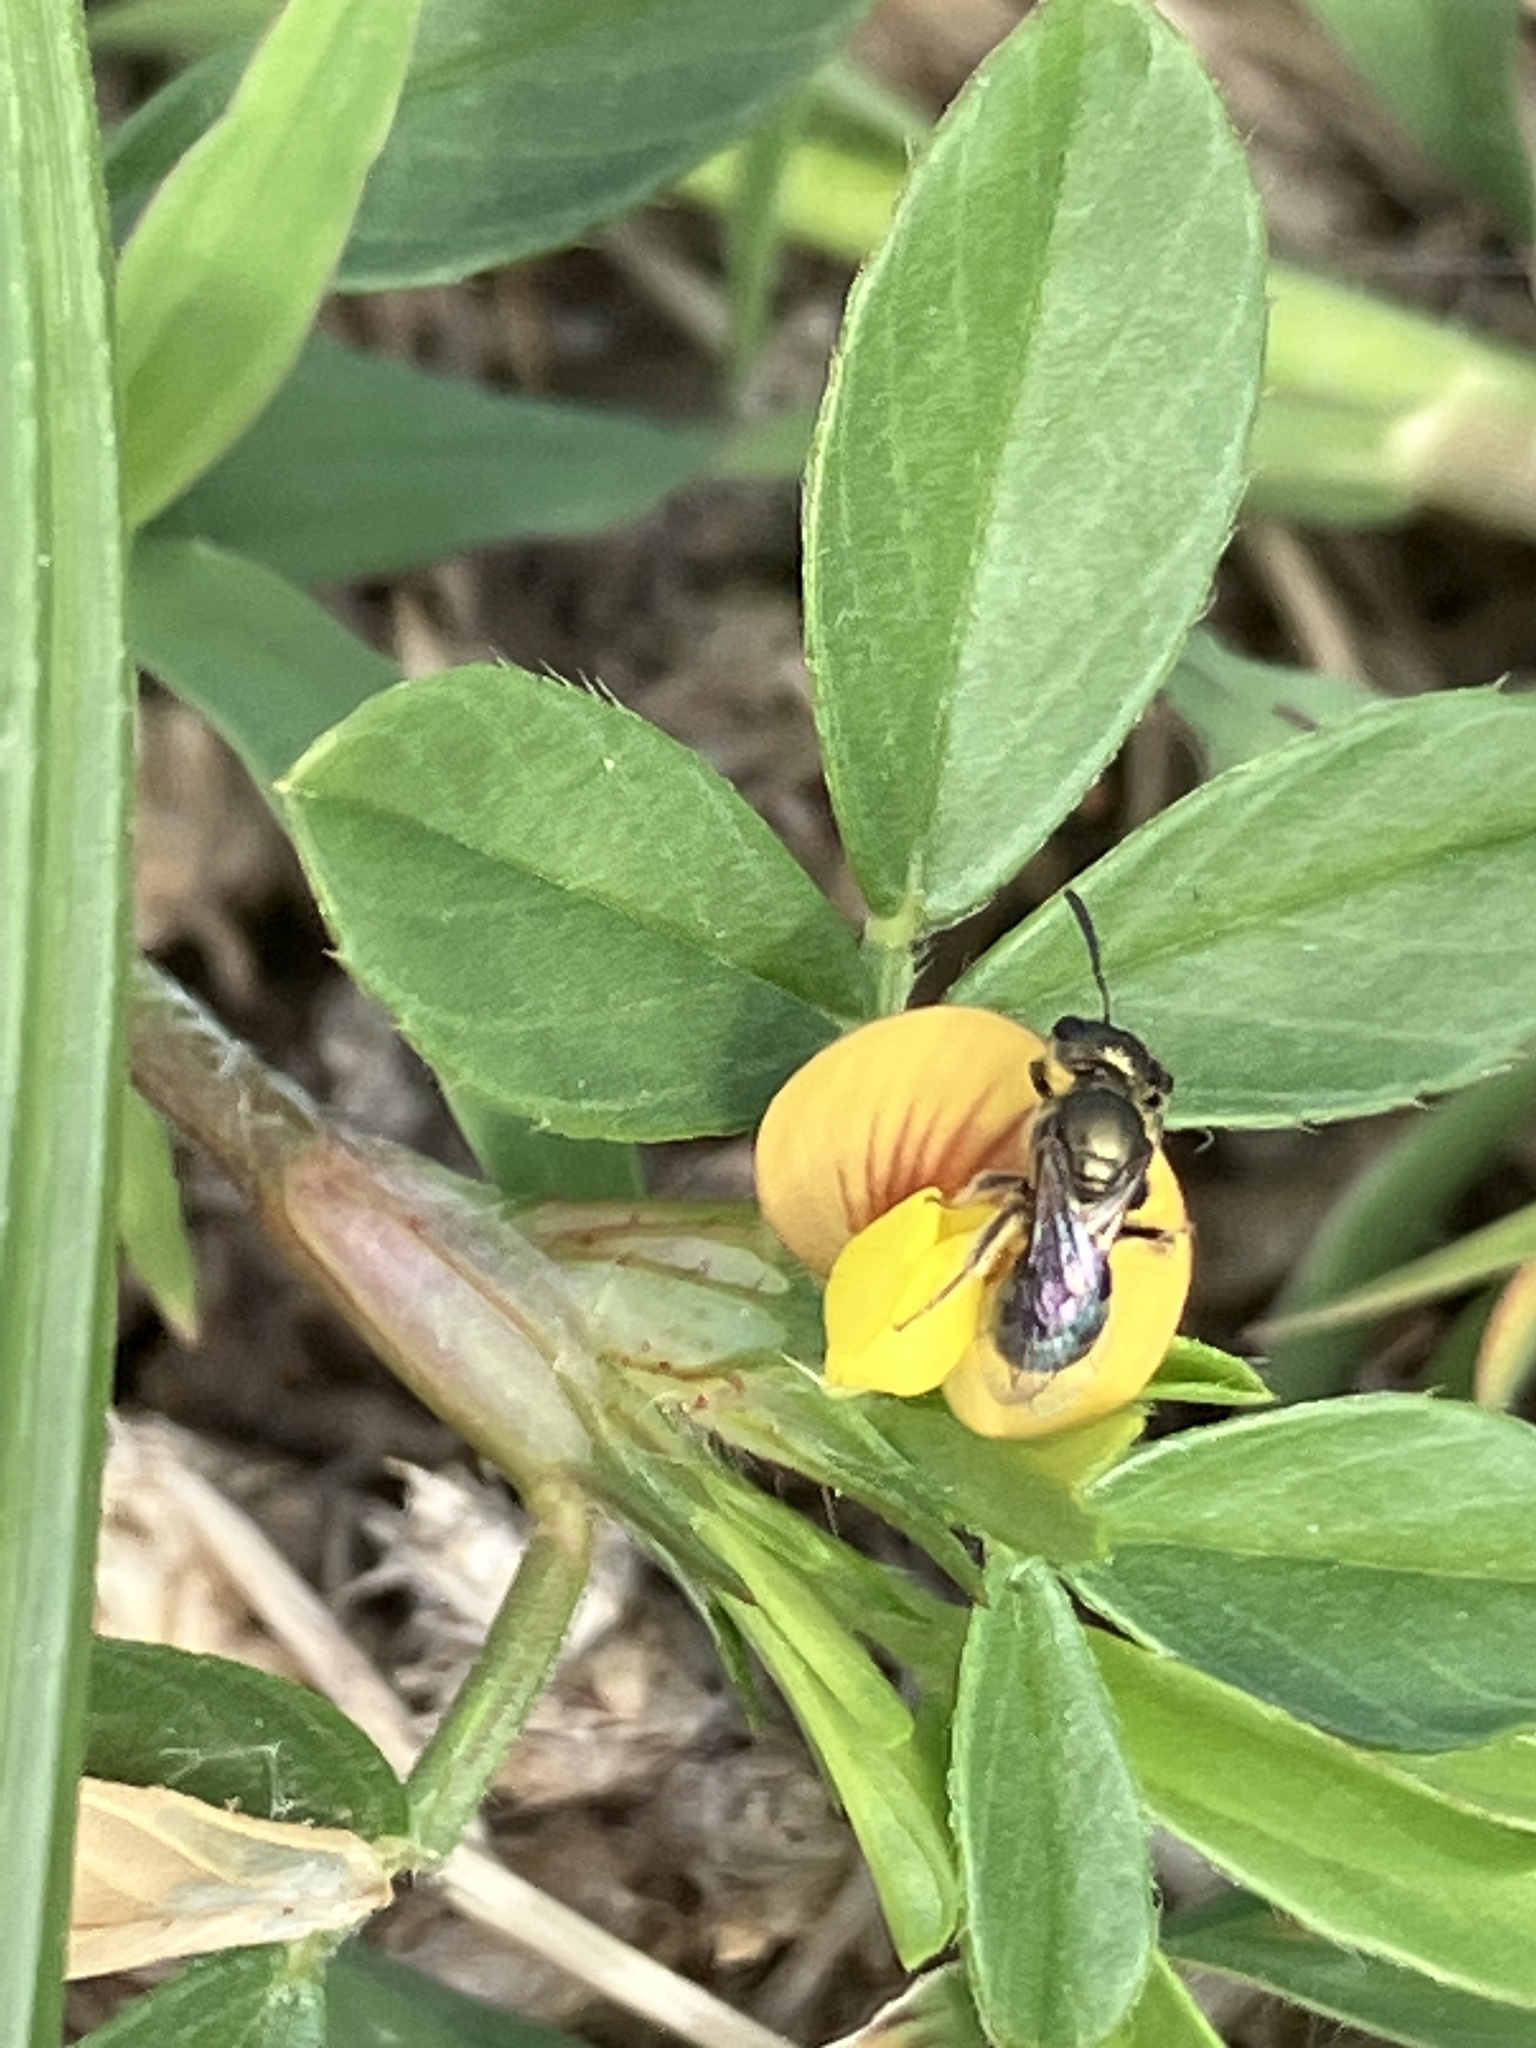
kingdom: Animalia
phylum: Arthropoda
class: Insecta
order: Hymenoptera
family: Halictidae
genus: Dialictus
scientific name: Dialictus
